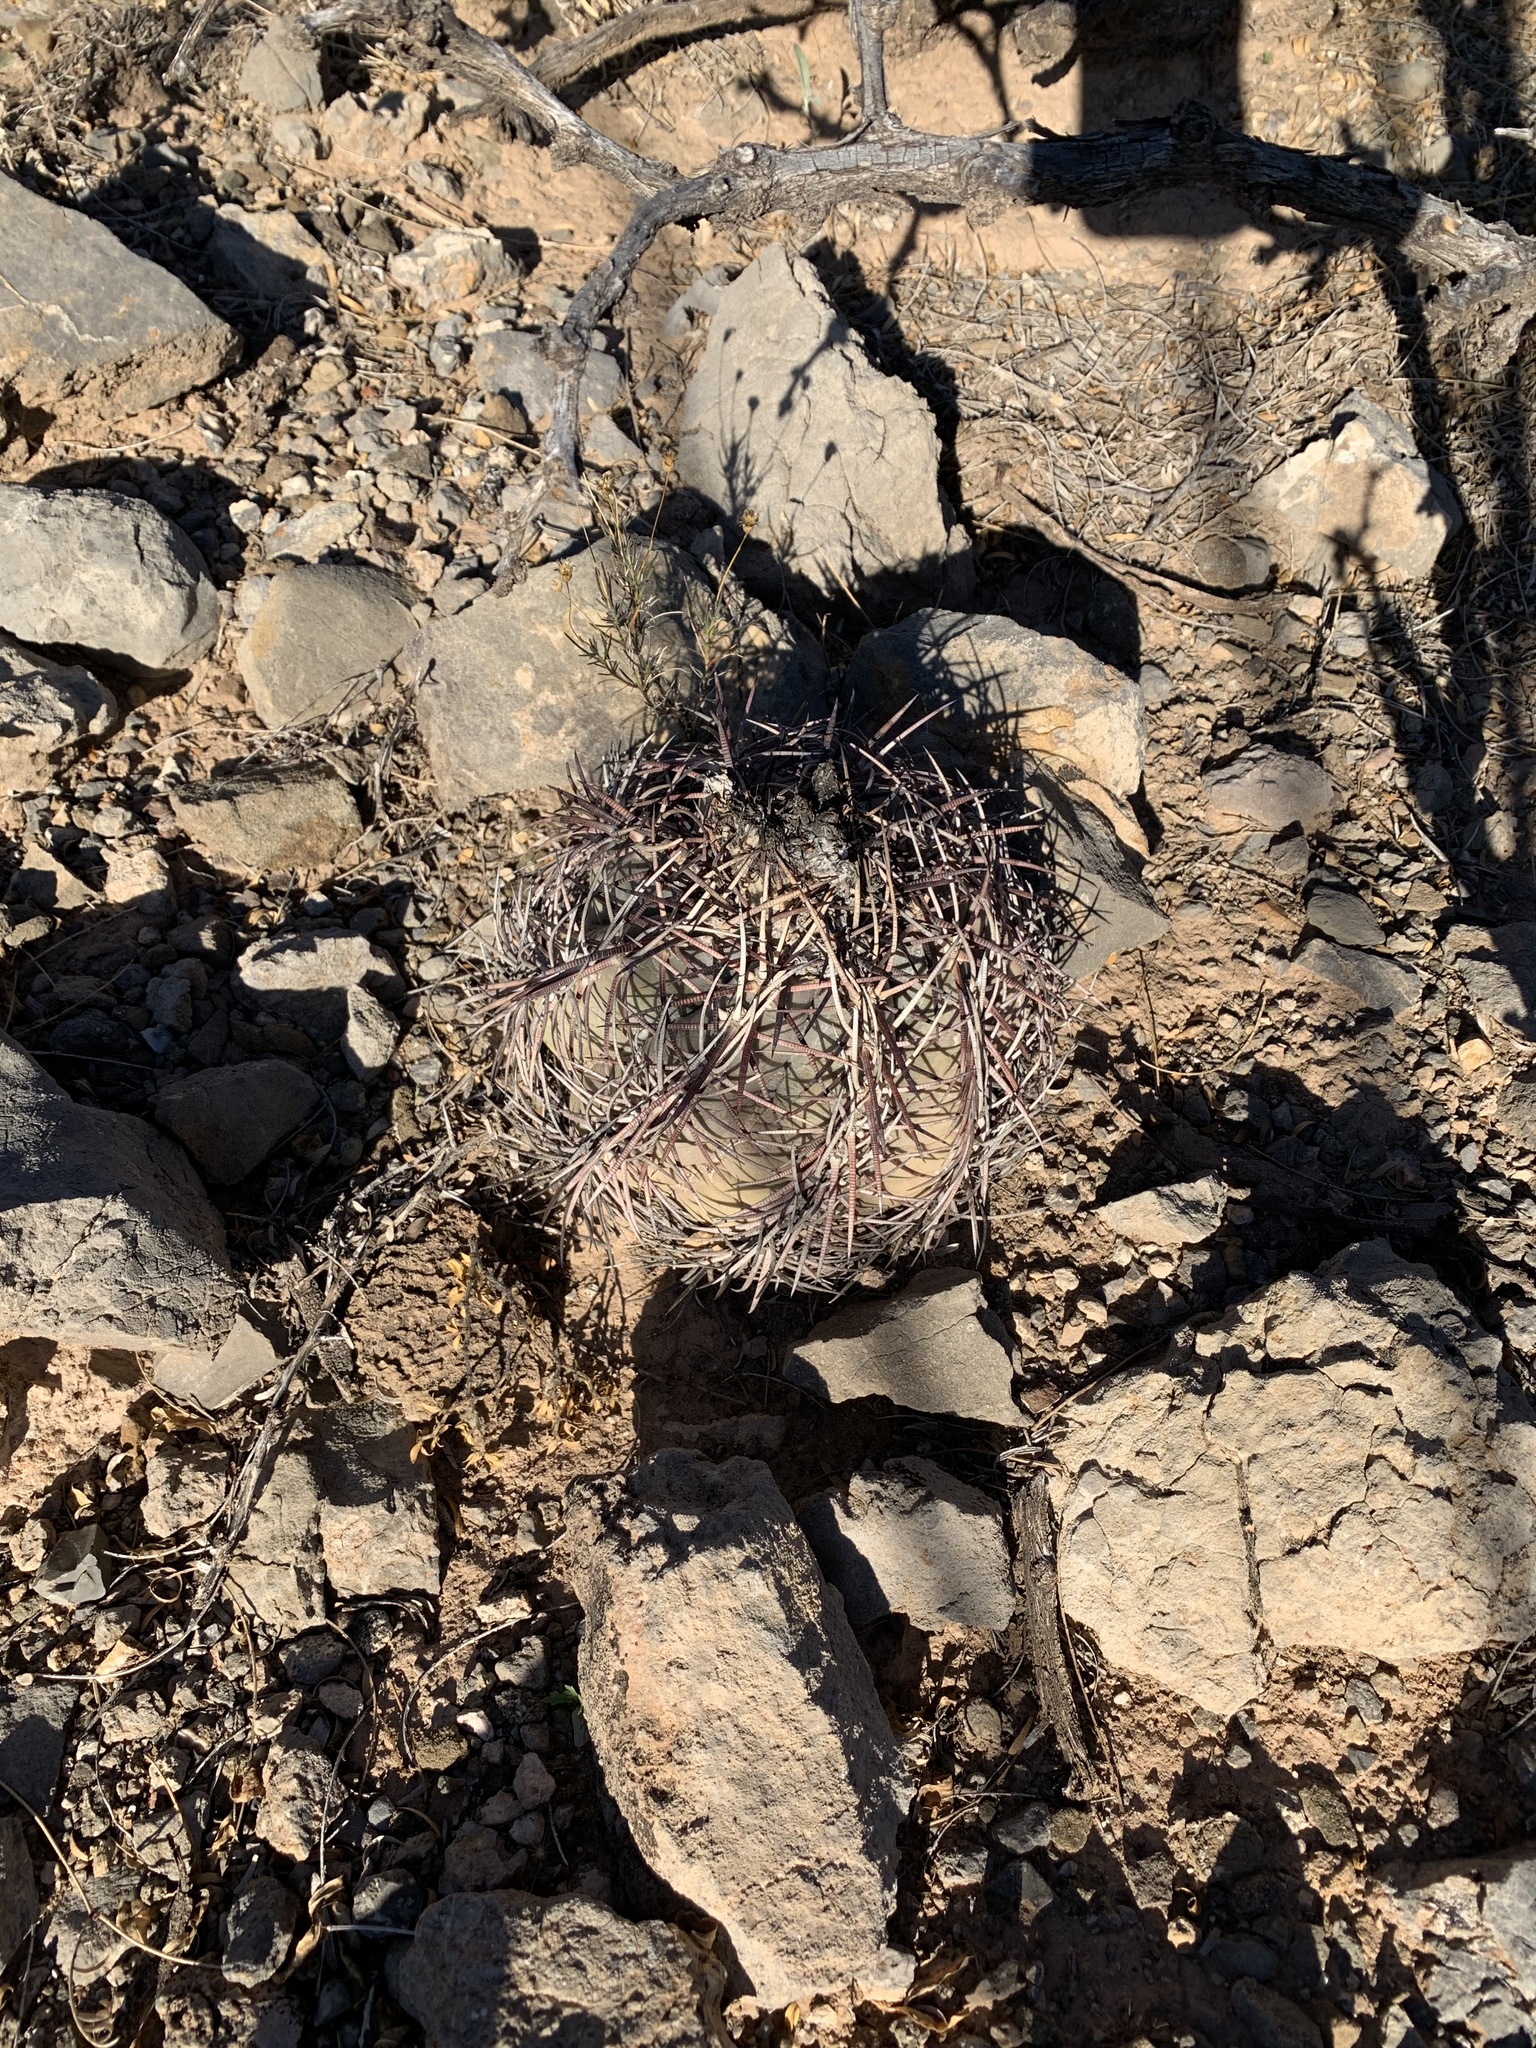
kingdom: Plantae
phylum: Tracheophyta
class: Magnoliopsida
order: Caryophyllales
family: Cactaceae
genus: Echinocactus
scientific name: Echinocactus horizonthalonius
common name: Devilshead
